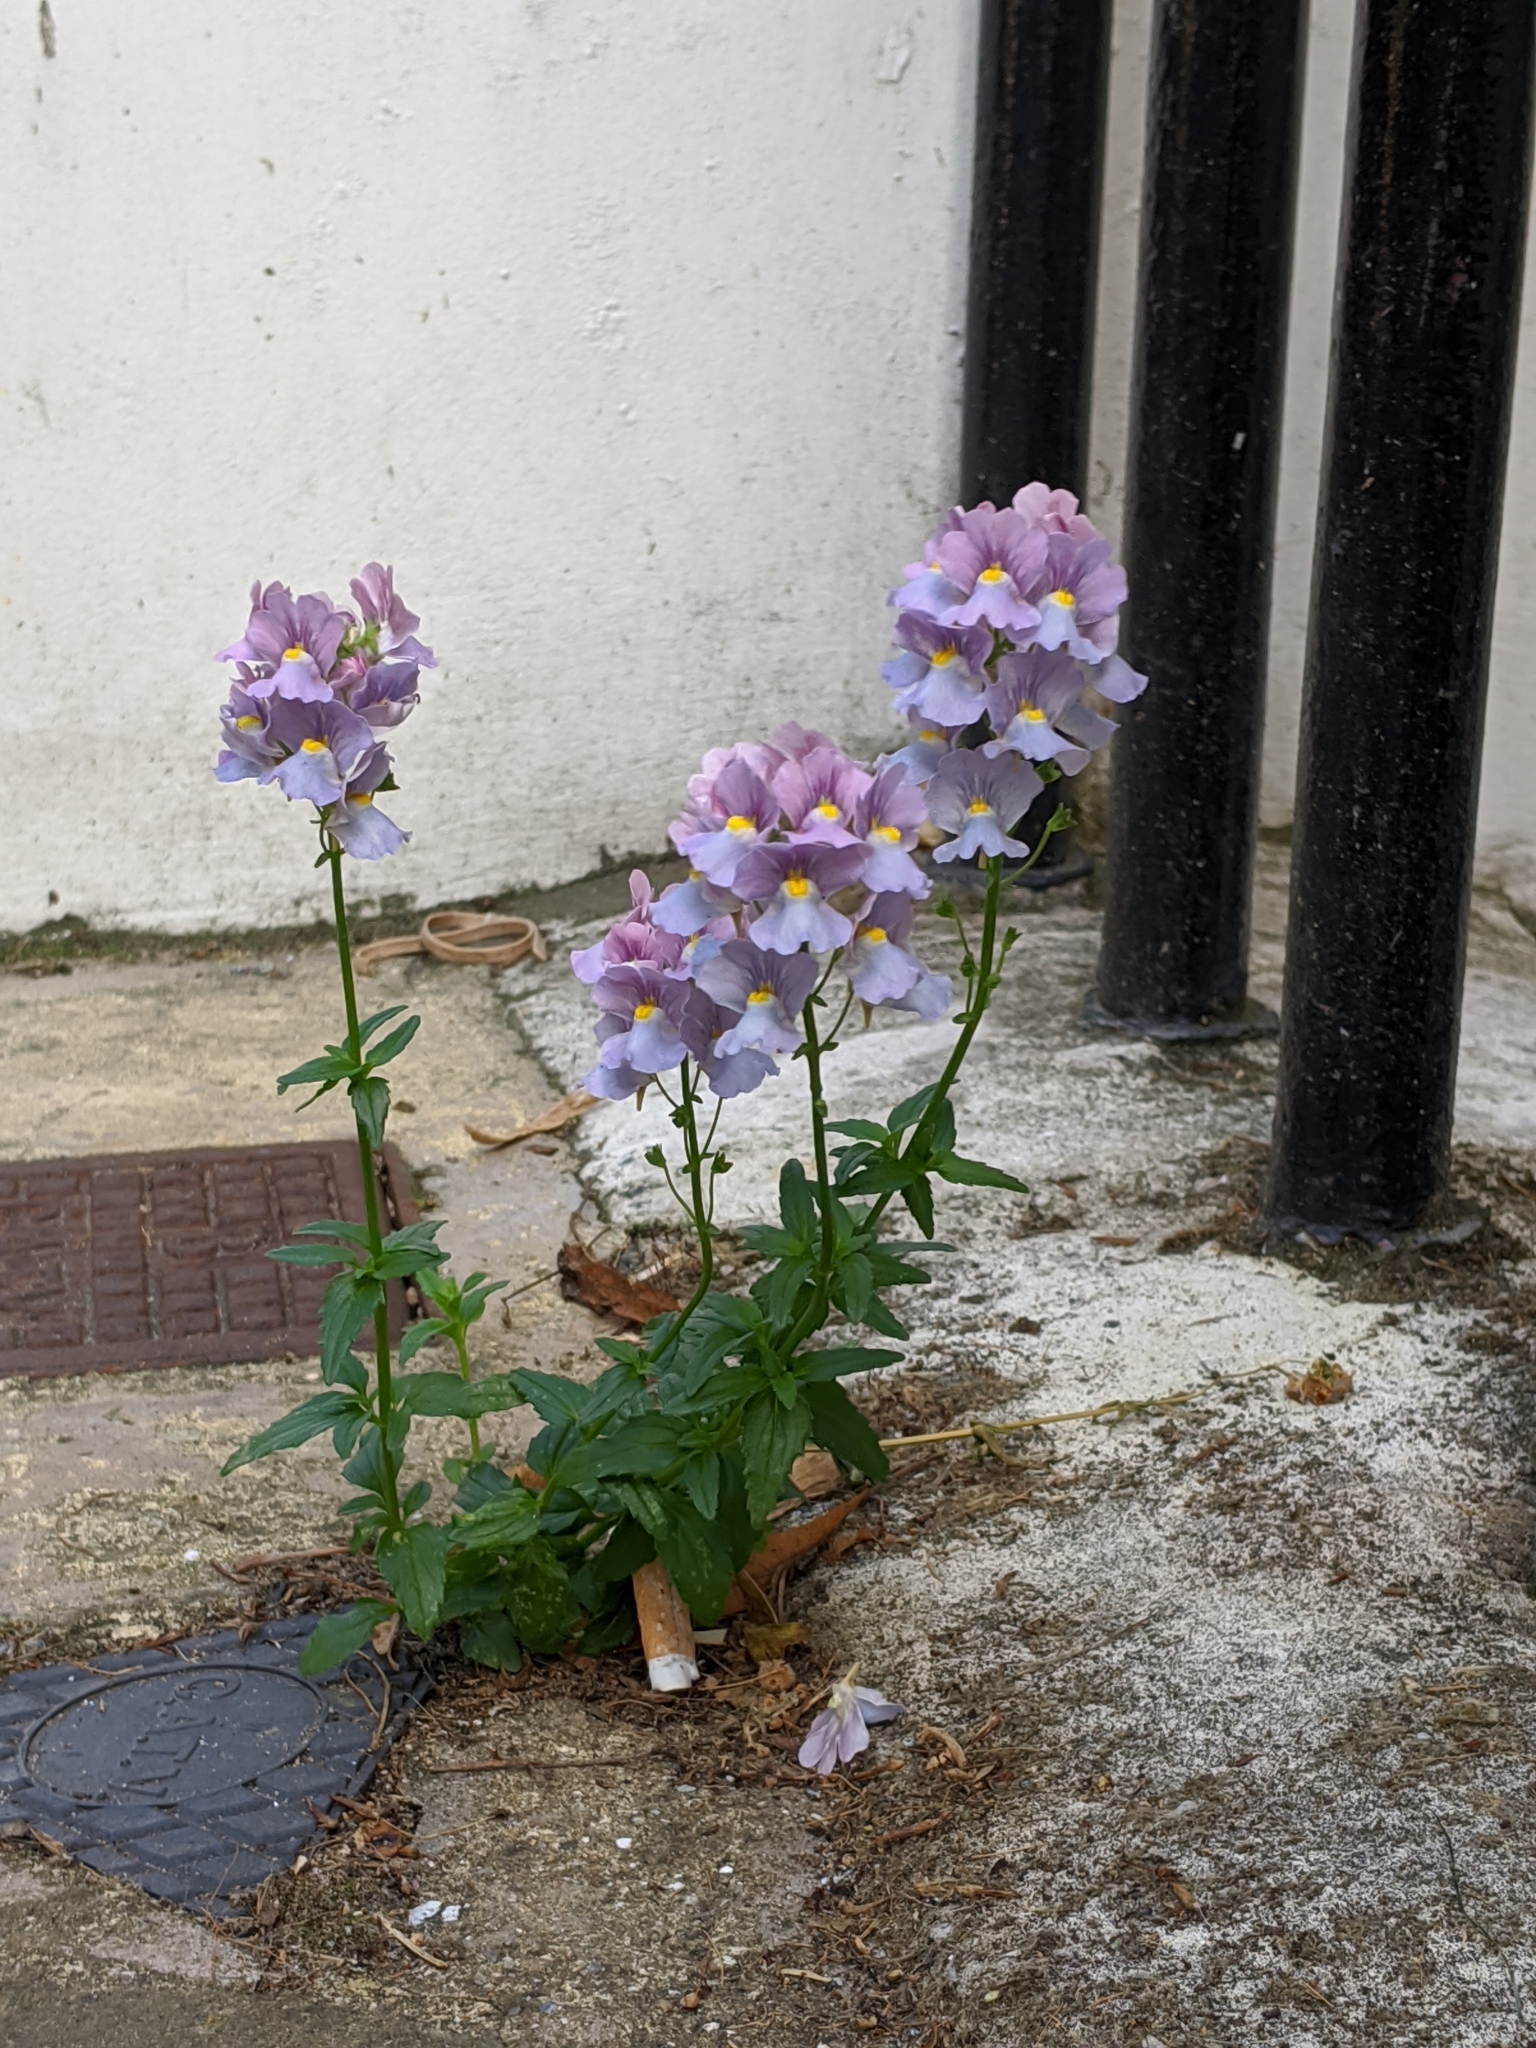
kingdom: Plantae
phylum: Tracheophyta
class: Magnoliopsida
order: Lamiales
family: Scrophulariaceae
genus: Nemesia
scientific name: Nemesia fruticans
